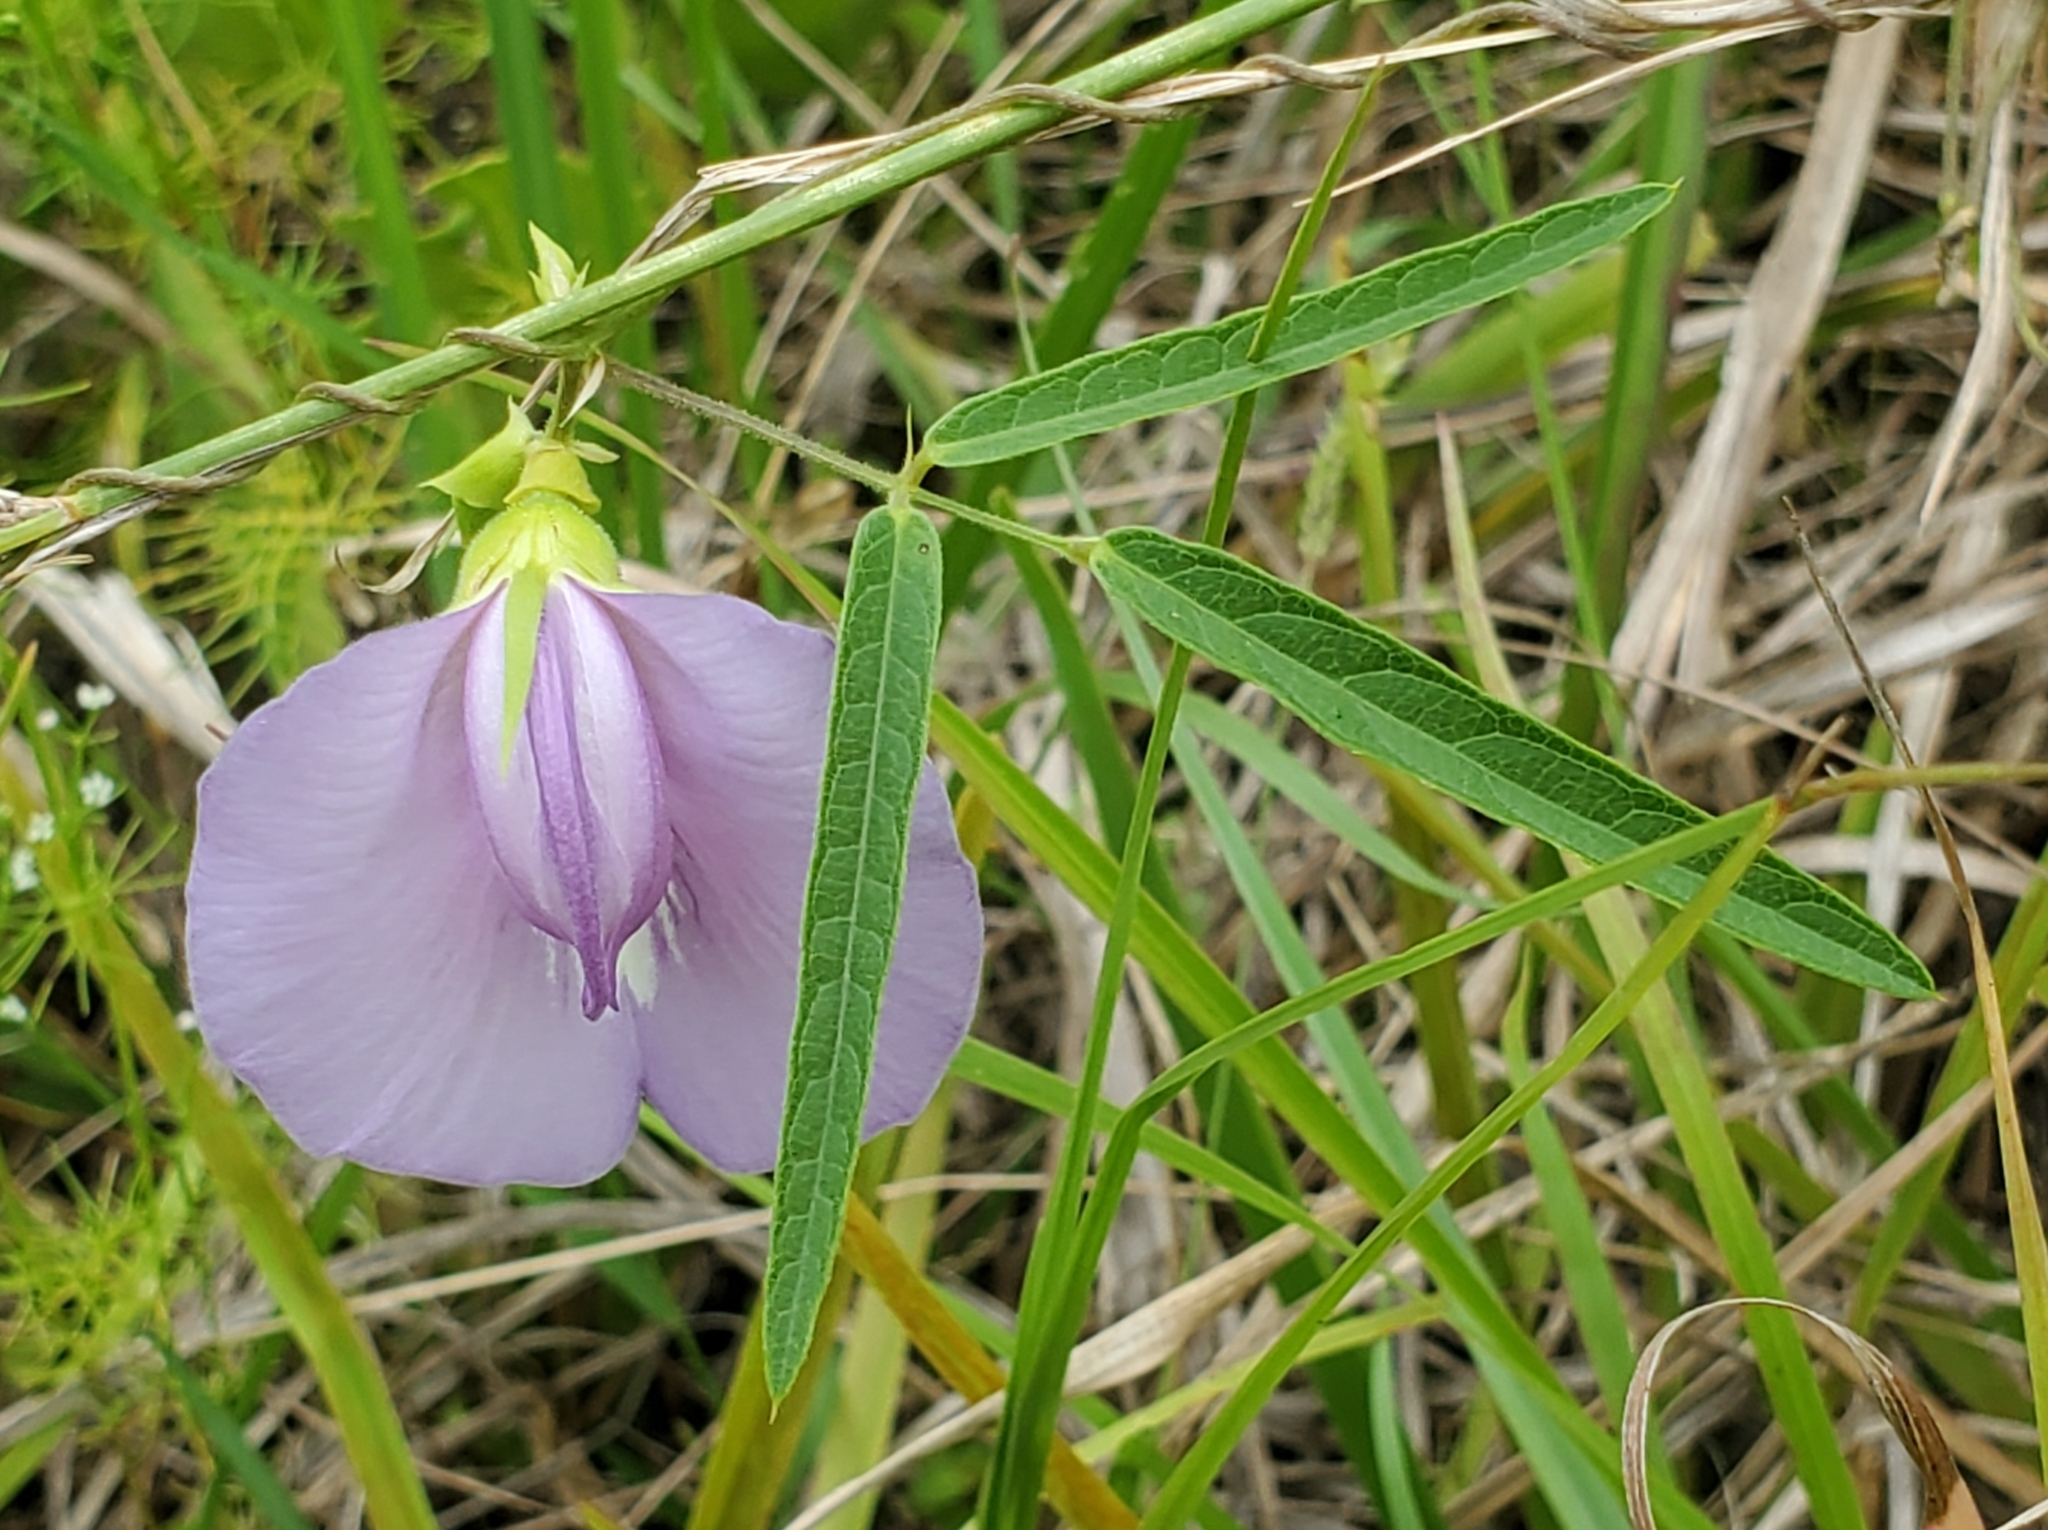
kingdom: Plantae
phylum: Tracheophyta
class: Magnoliopsida
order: Fabales
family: Fabaceae
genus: Centrosema
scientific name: Centrosema virginianum
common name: Butterfly-pea
